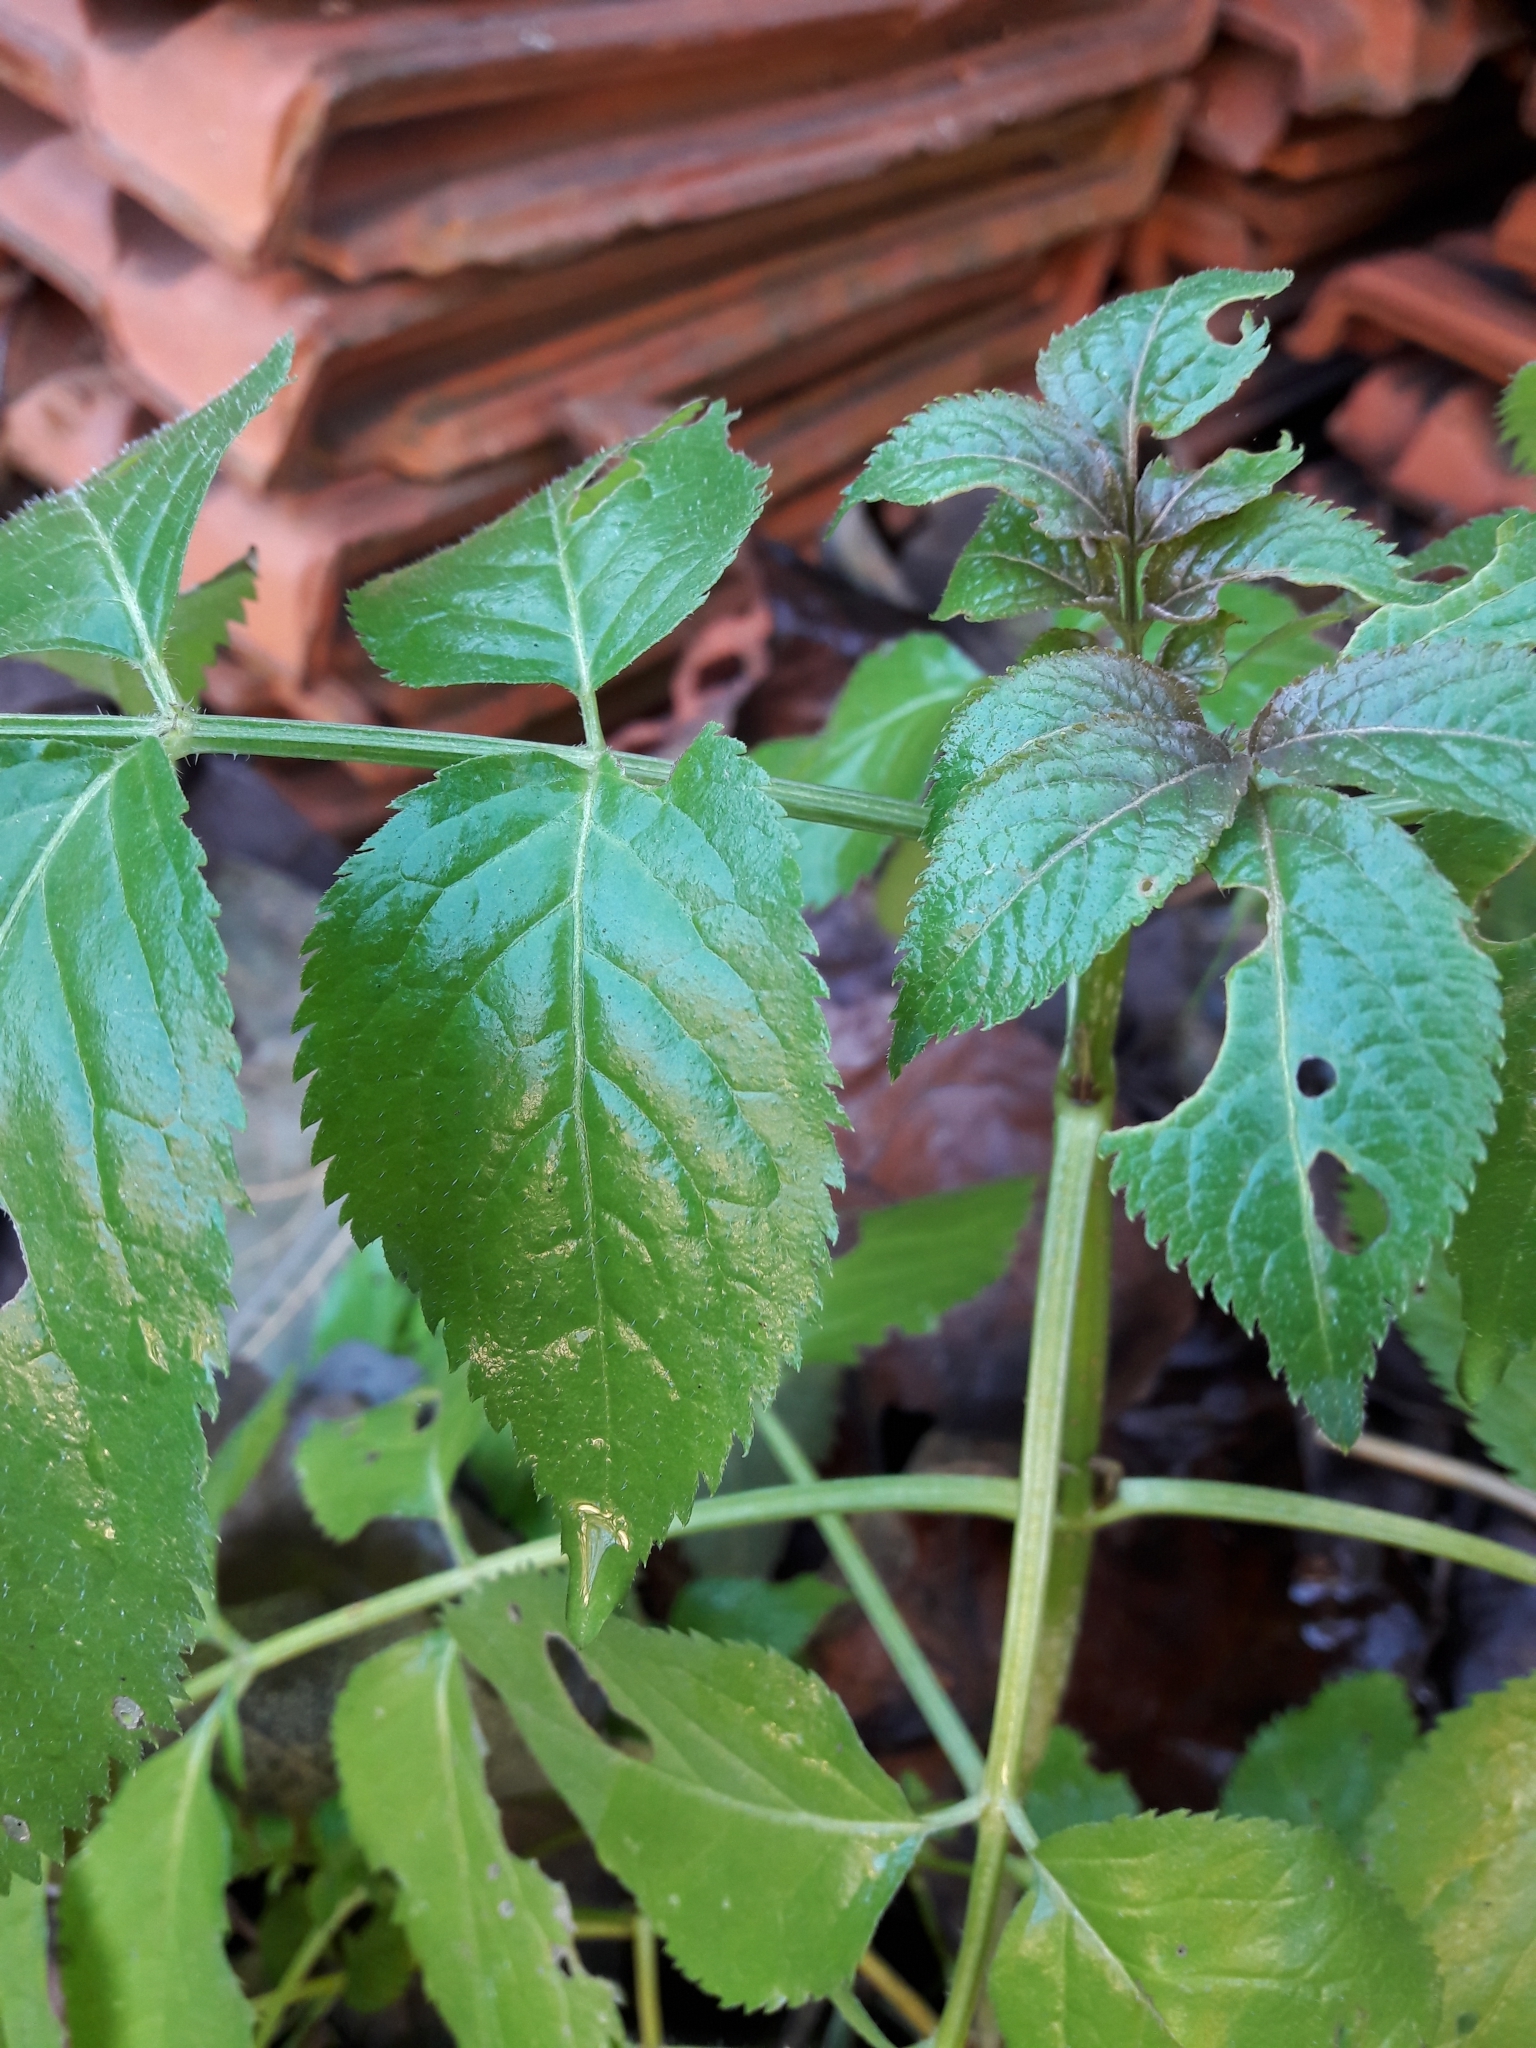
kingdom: Plantae
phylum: Tracheophyta
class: Magnoliopsida
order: Dipsacales
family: Viburnaceae
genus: Sambucus
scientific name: Sambucus nigra
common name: Elder
